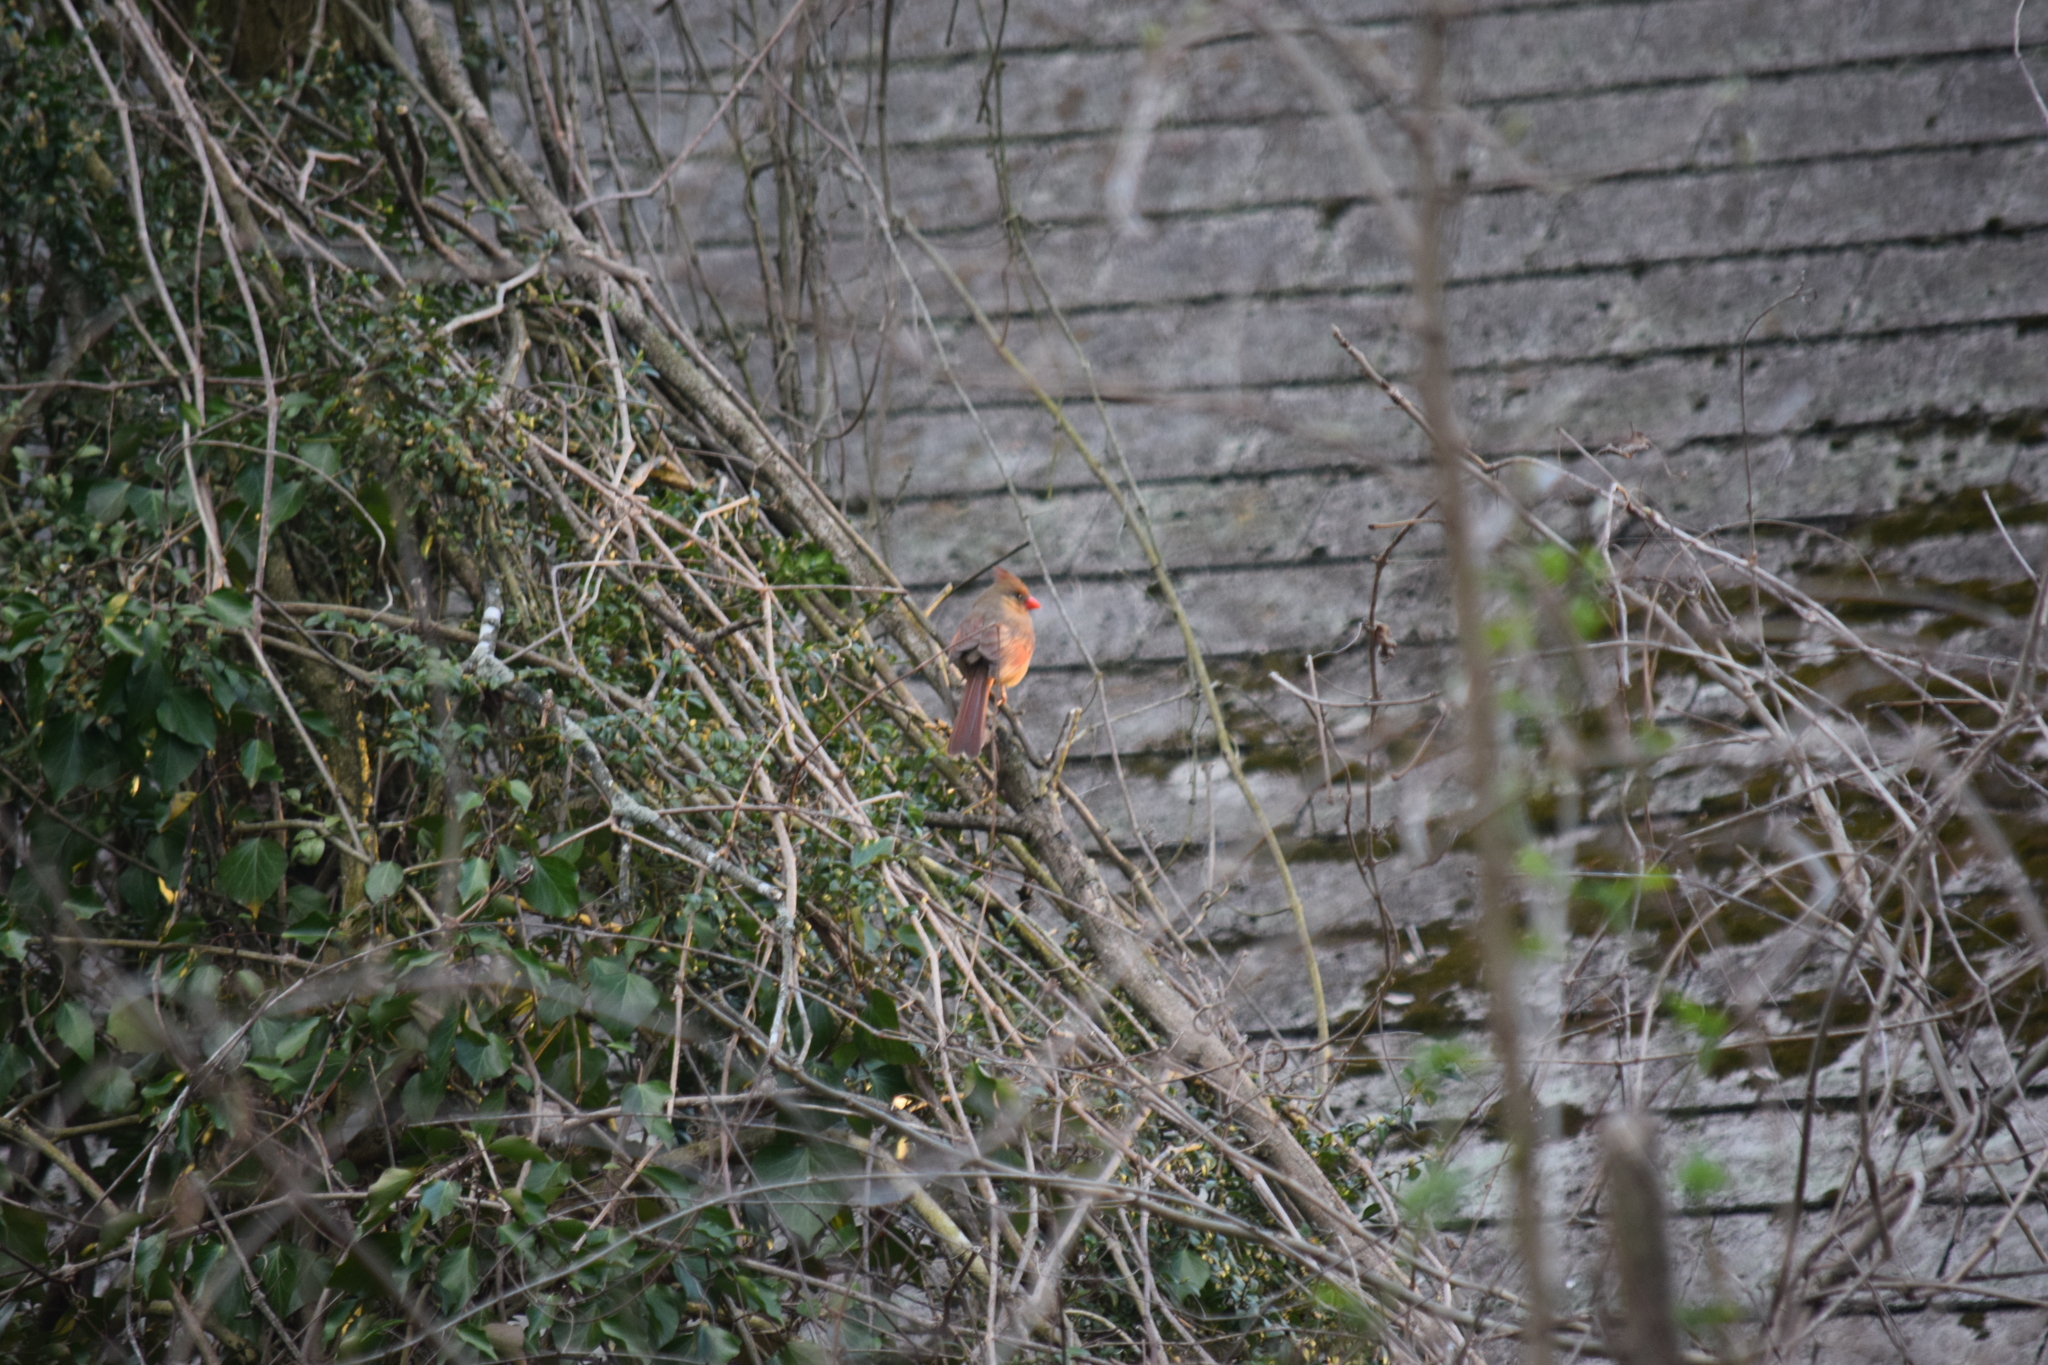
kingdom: Animalia
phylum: Chordata
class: Aves
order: Passeriformes
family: Cardinalidae
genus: Cardinalis
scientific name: Cardinalis cardinalis
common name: Northern cardinal
